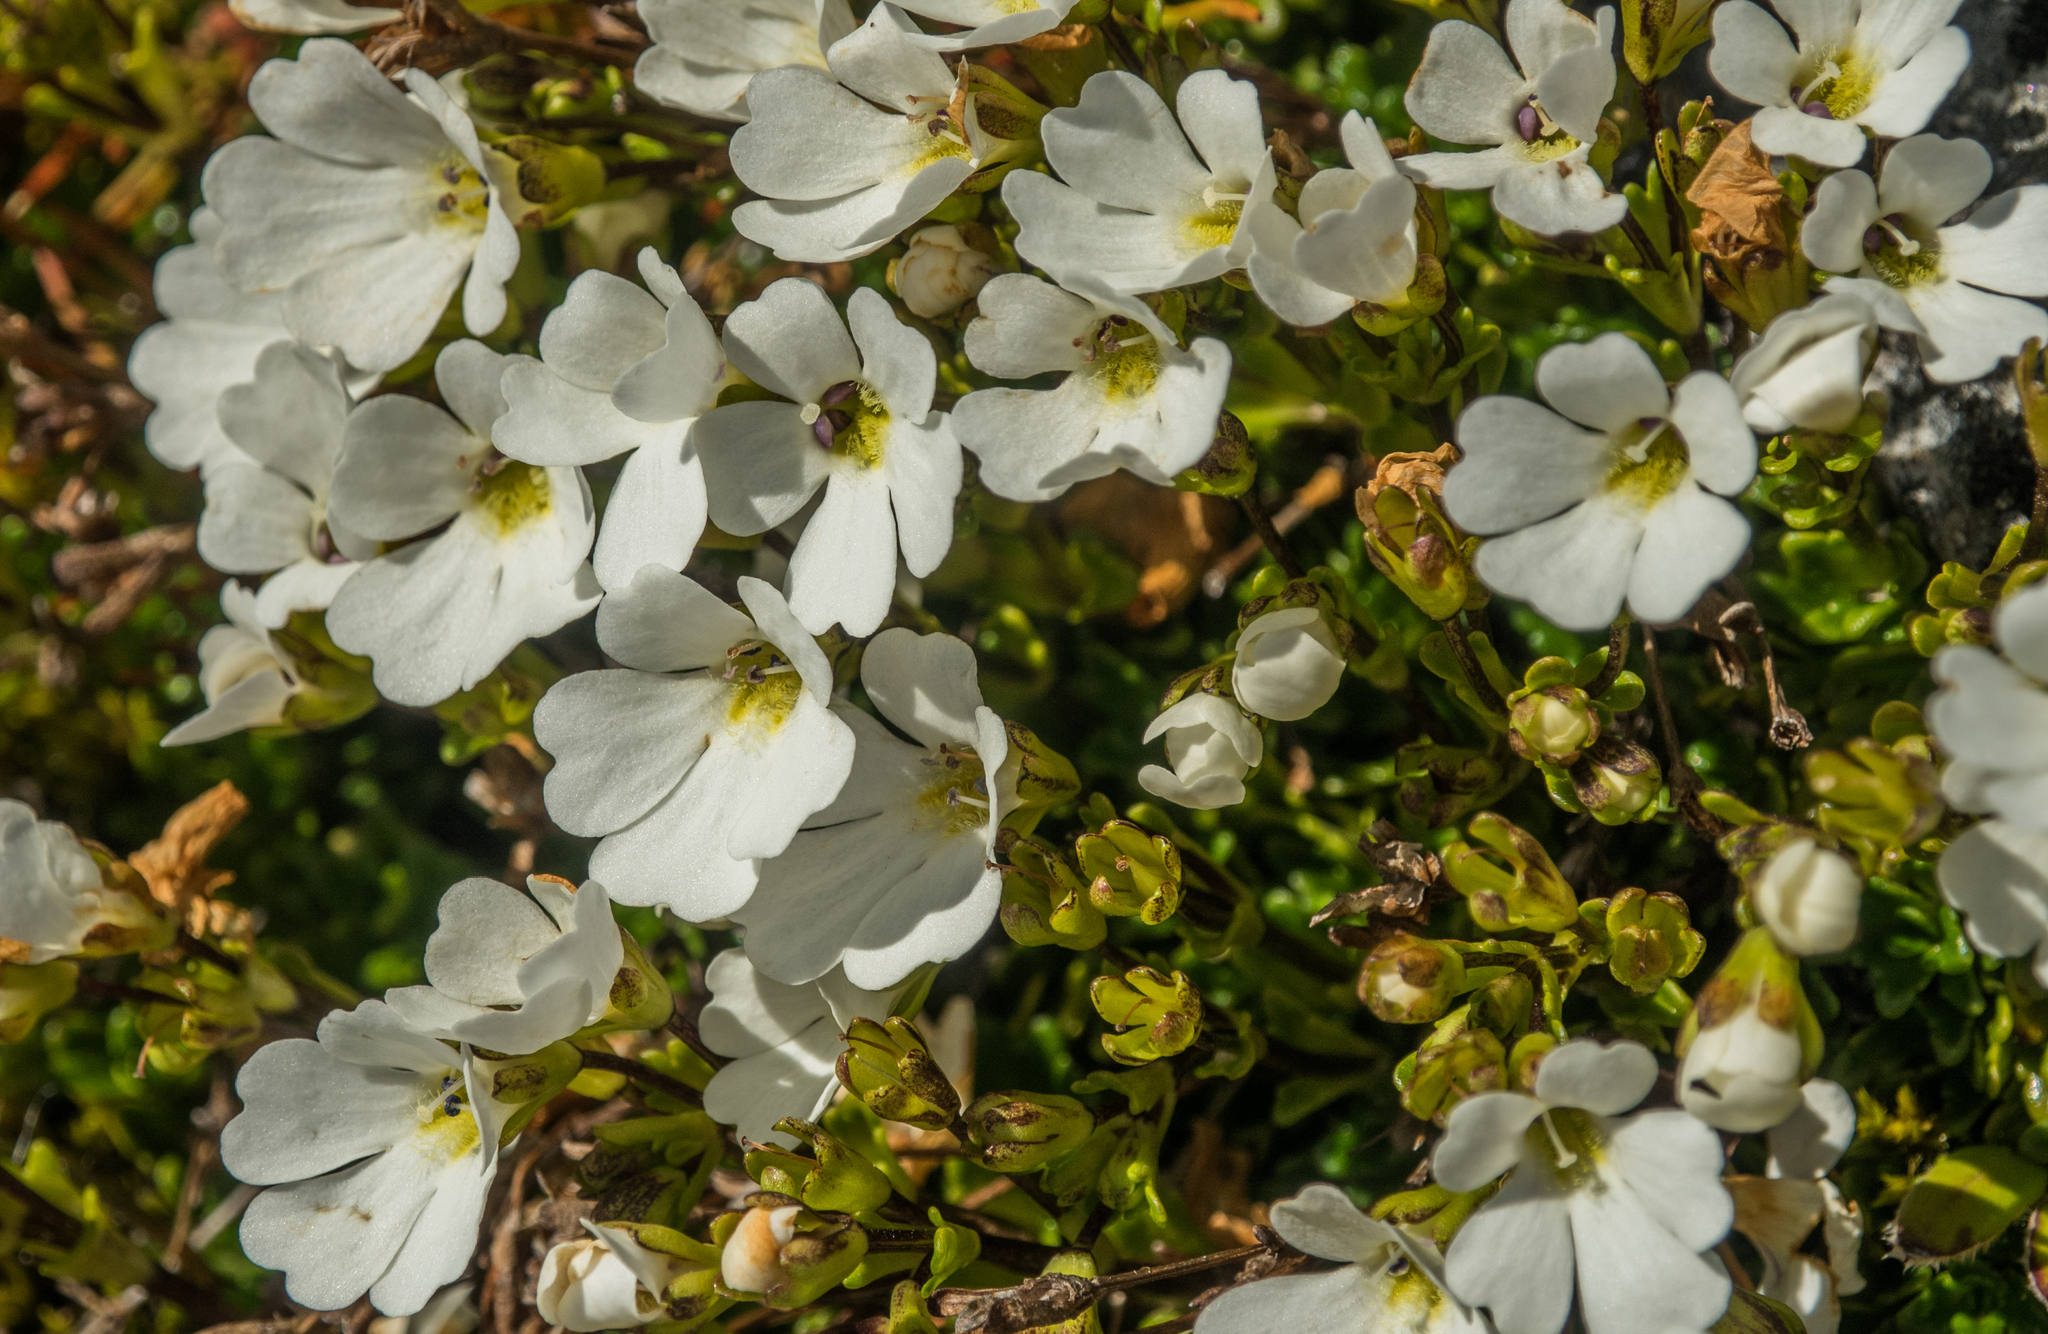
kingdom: Plantae
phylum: Tracheophyta
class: Magnoliopsida
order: Lamiales
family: Plantaginaceae
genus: Ourisia
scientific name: Ourisia caespitosa
